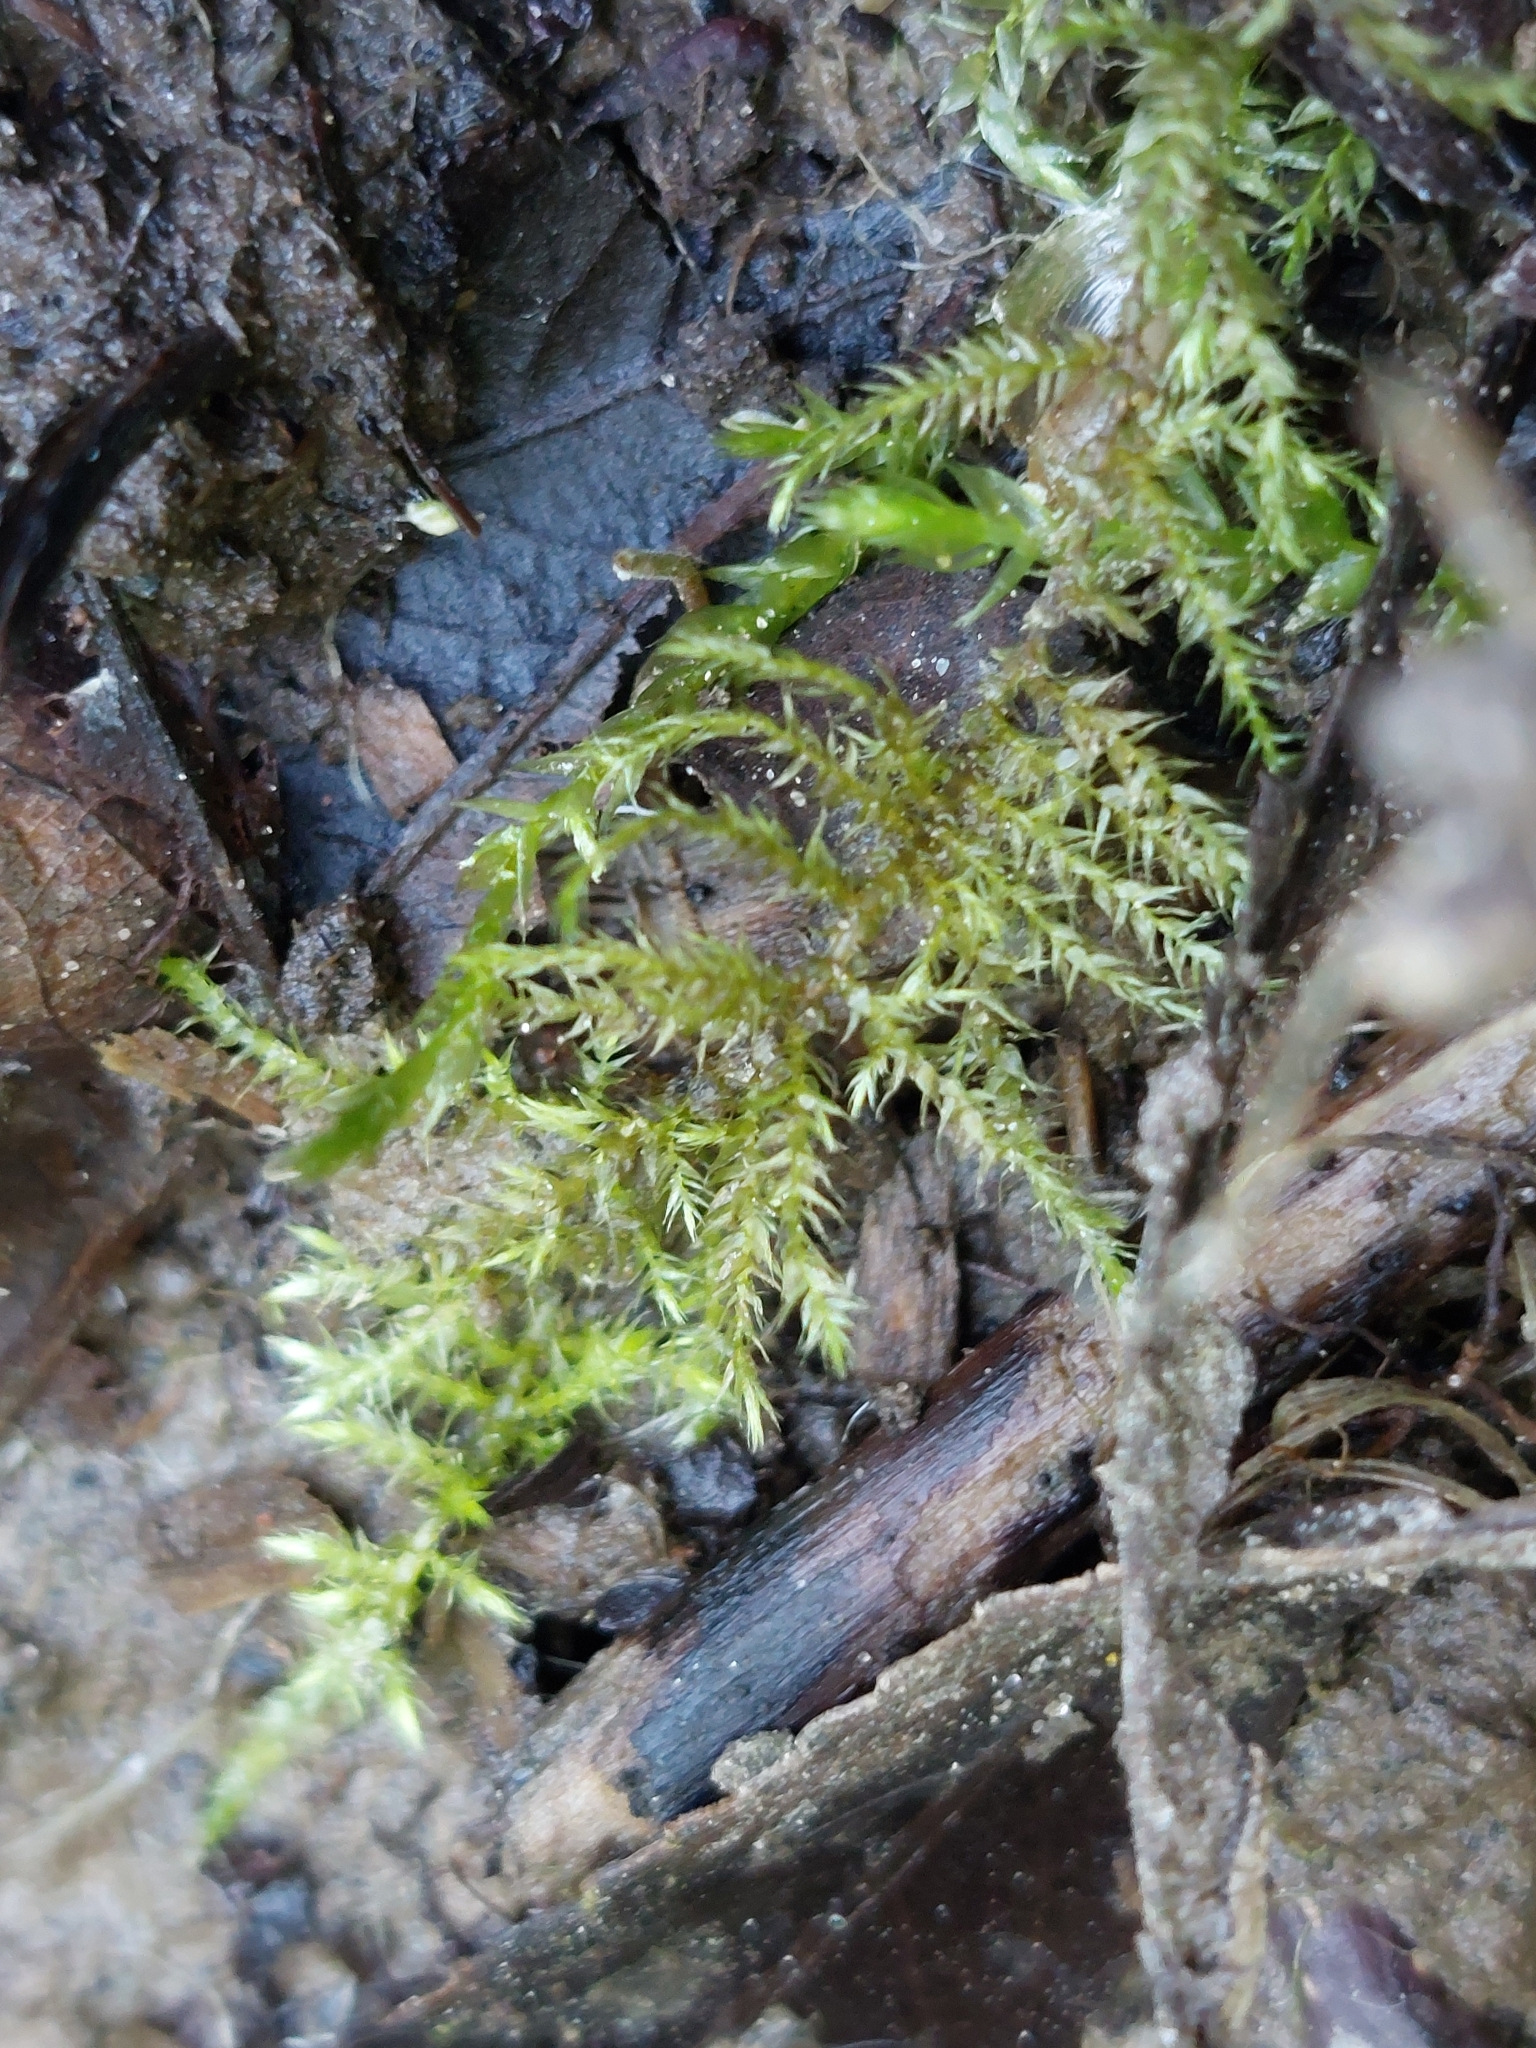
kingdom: Plantae
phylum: Bryophyta
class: Bryopsida
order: Hypnales
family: Brachytheciaceae
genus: Kindbergia
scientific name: Kindbergia praelonga
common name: Slender beaked moss
